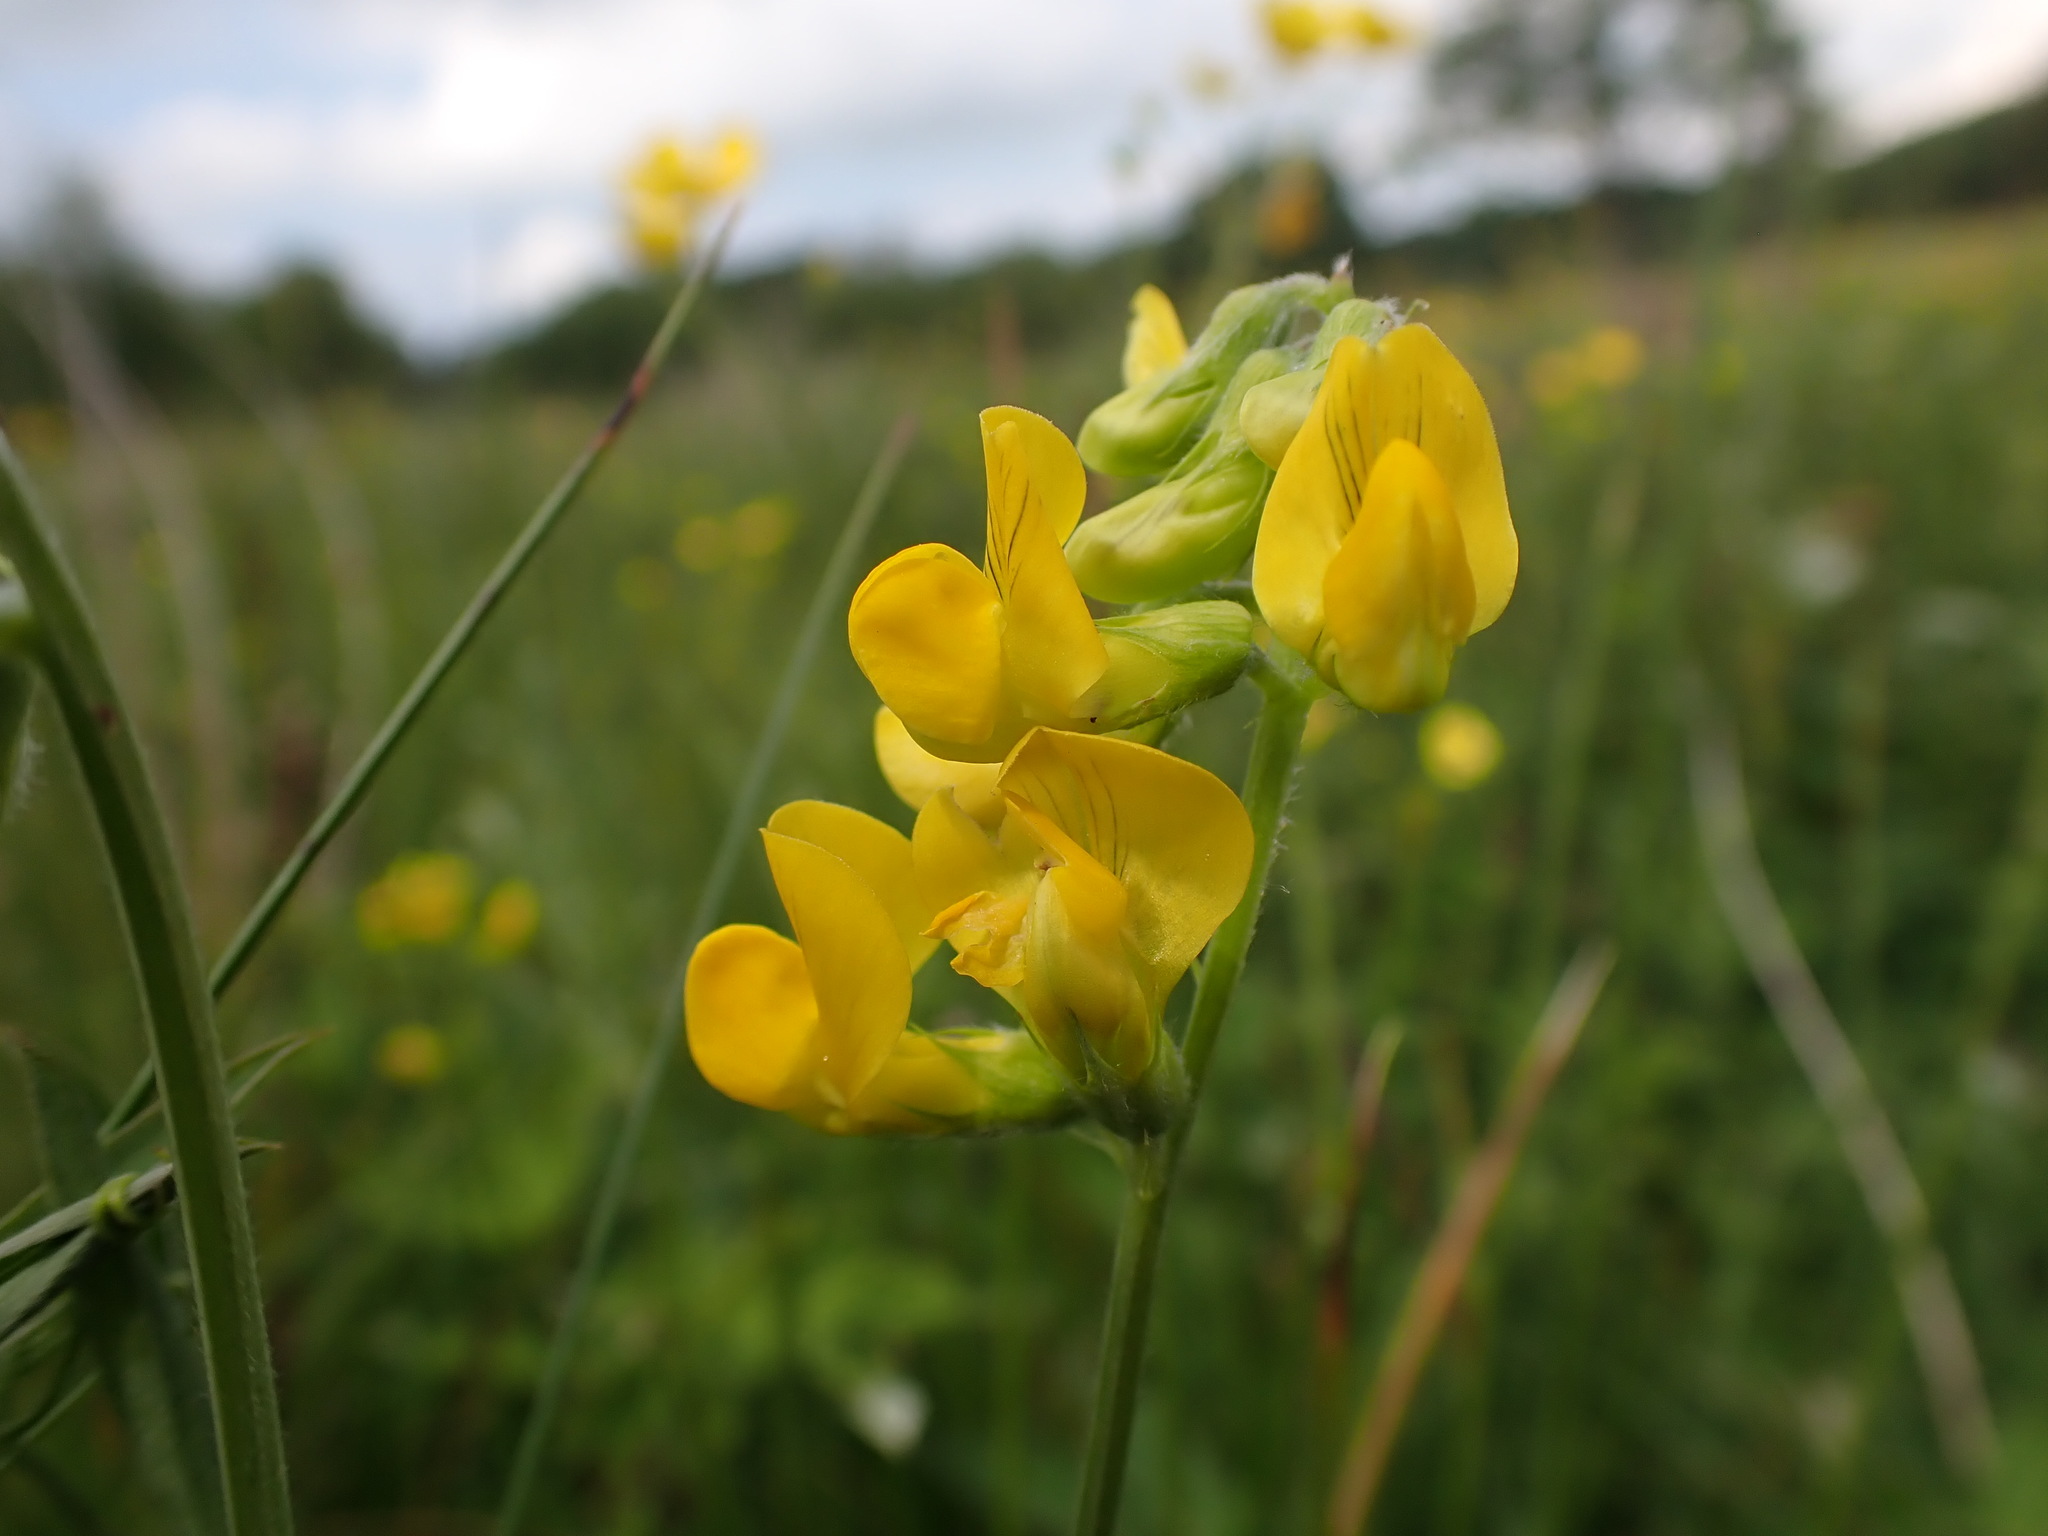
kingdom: Plantae
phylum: Tracheophyta
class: Magnoliopsida
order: Fabales
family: Fabaceae
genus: Lathyrus
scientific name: Lathyrus pratensis
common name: Meadow vetchling
